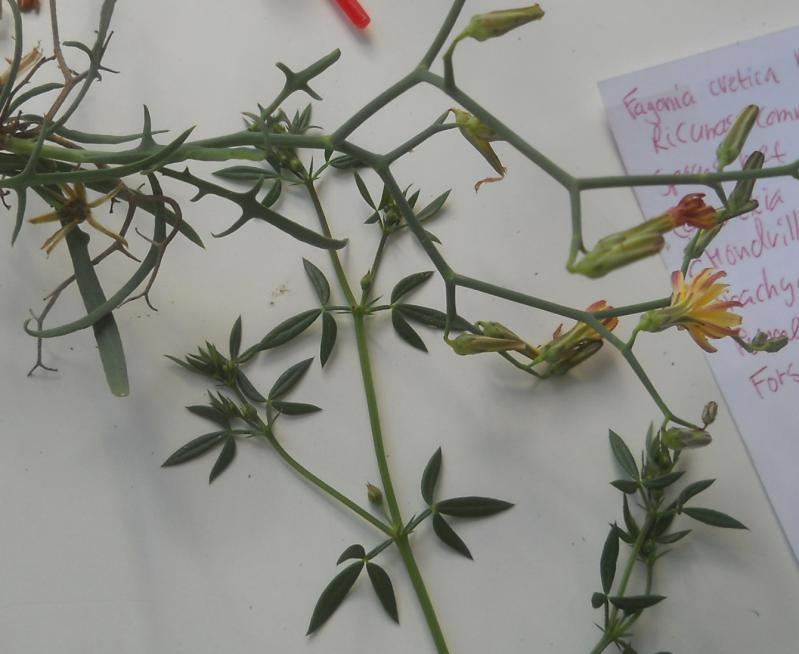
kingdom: Plantae
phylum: Tracheophyta
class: Magnoliopsida
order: Zygophyllales
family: Zygophyllaceae
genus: Fagonia
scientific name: Fagonia cretica
